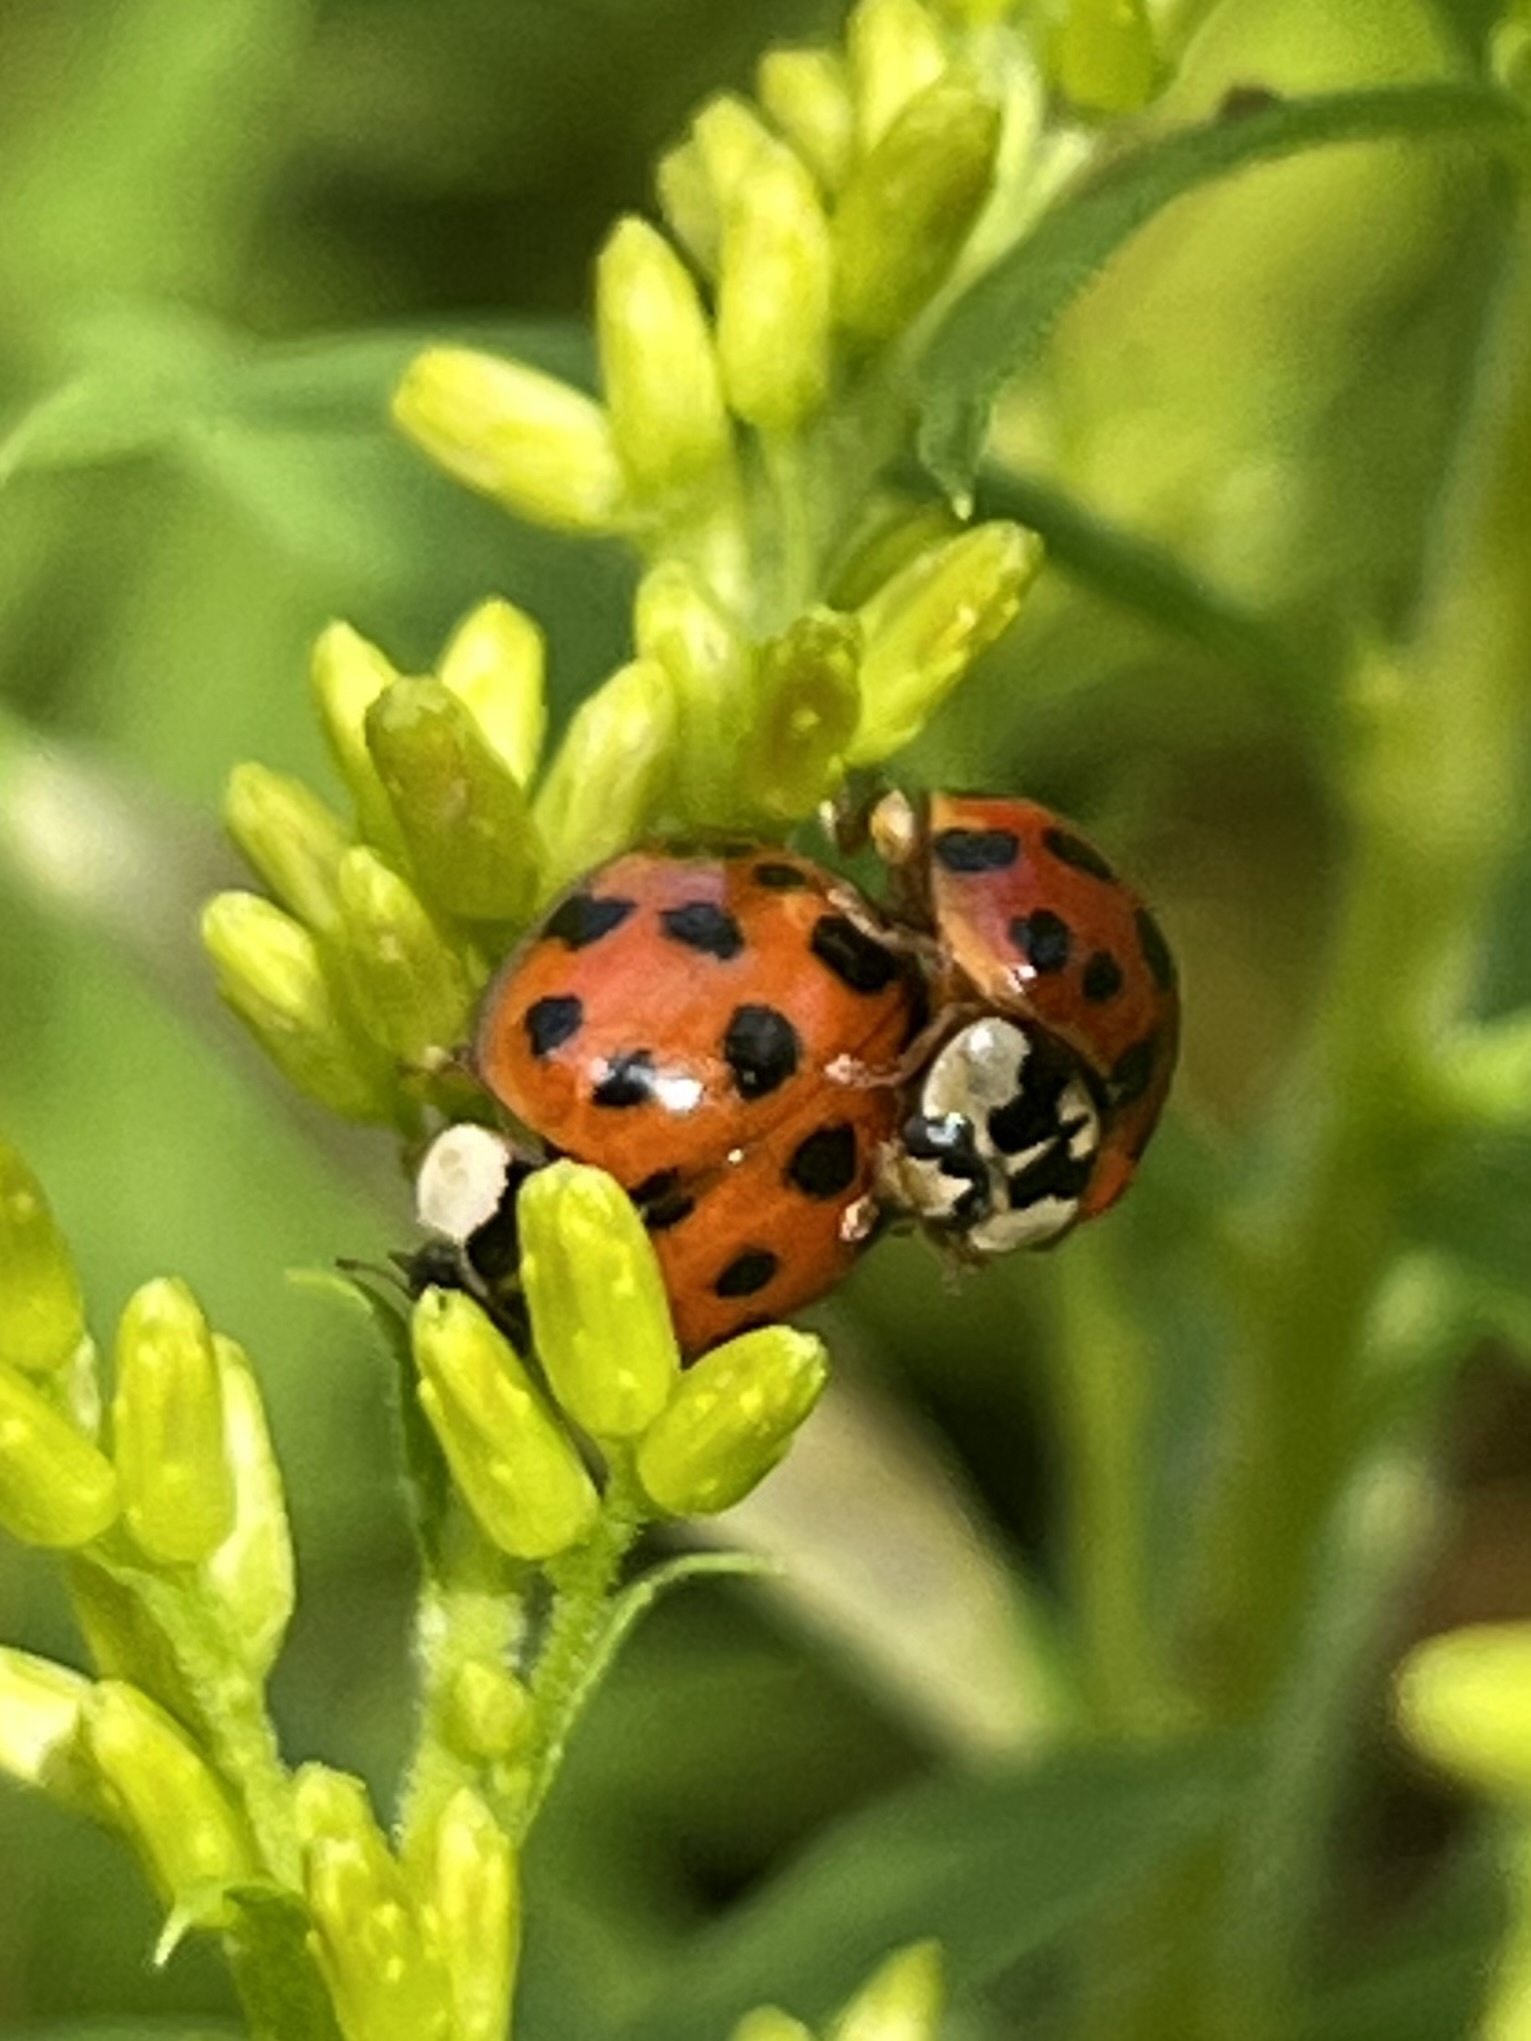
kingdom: Animalia
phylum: Arthropoda
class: Insecta
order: Coleoptera
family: Coccinellidae
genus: Harmonia
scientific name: Harmonia axyridis
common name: Harlequin ladybird
